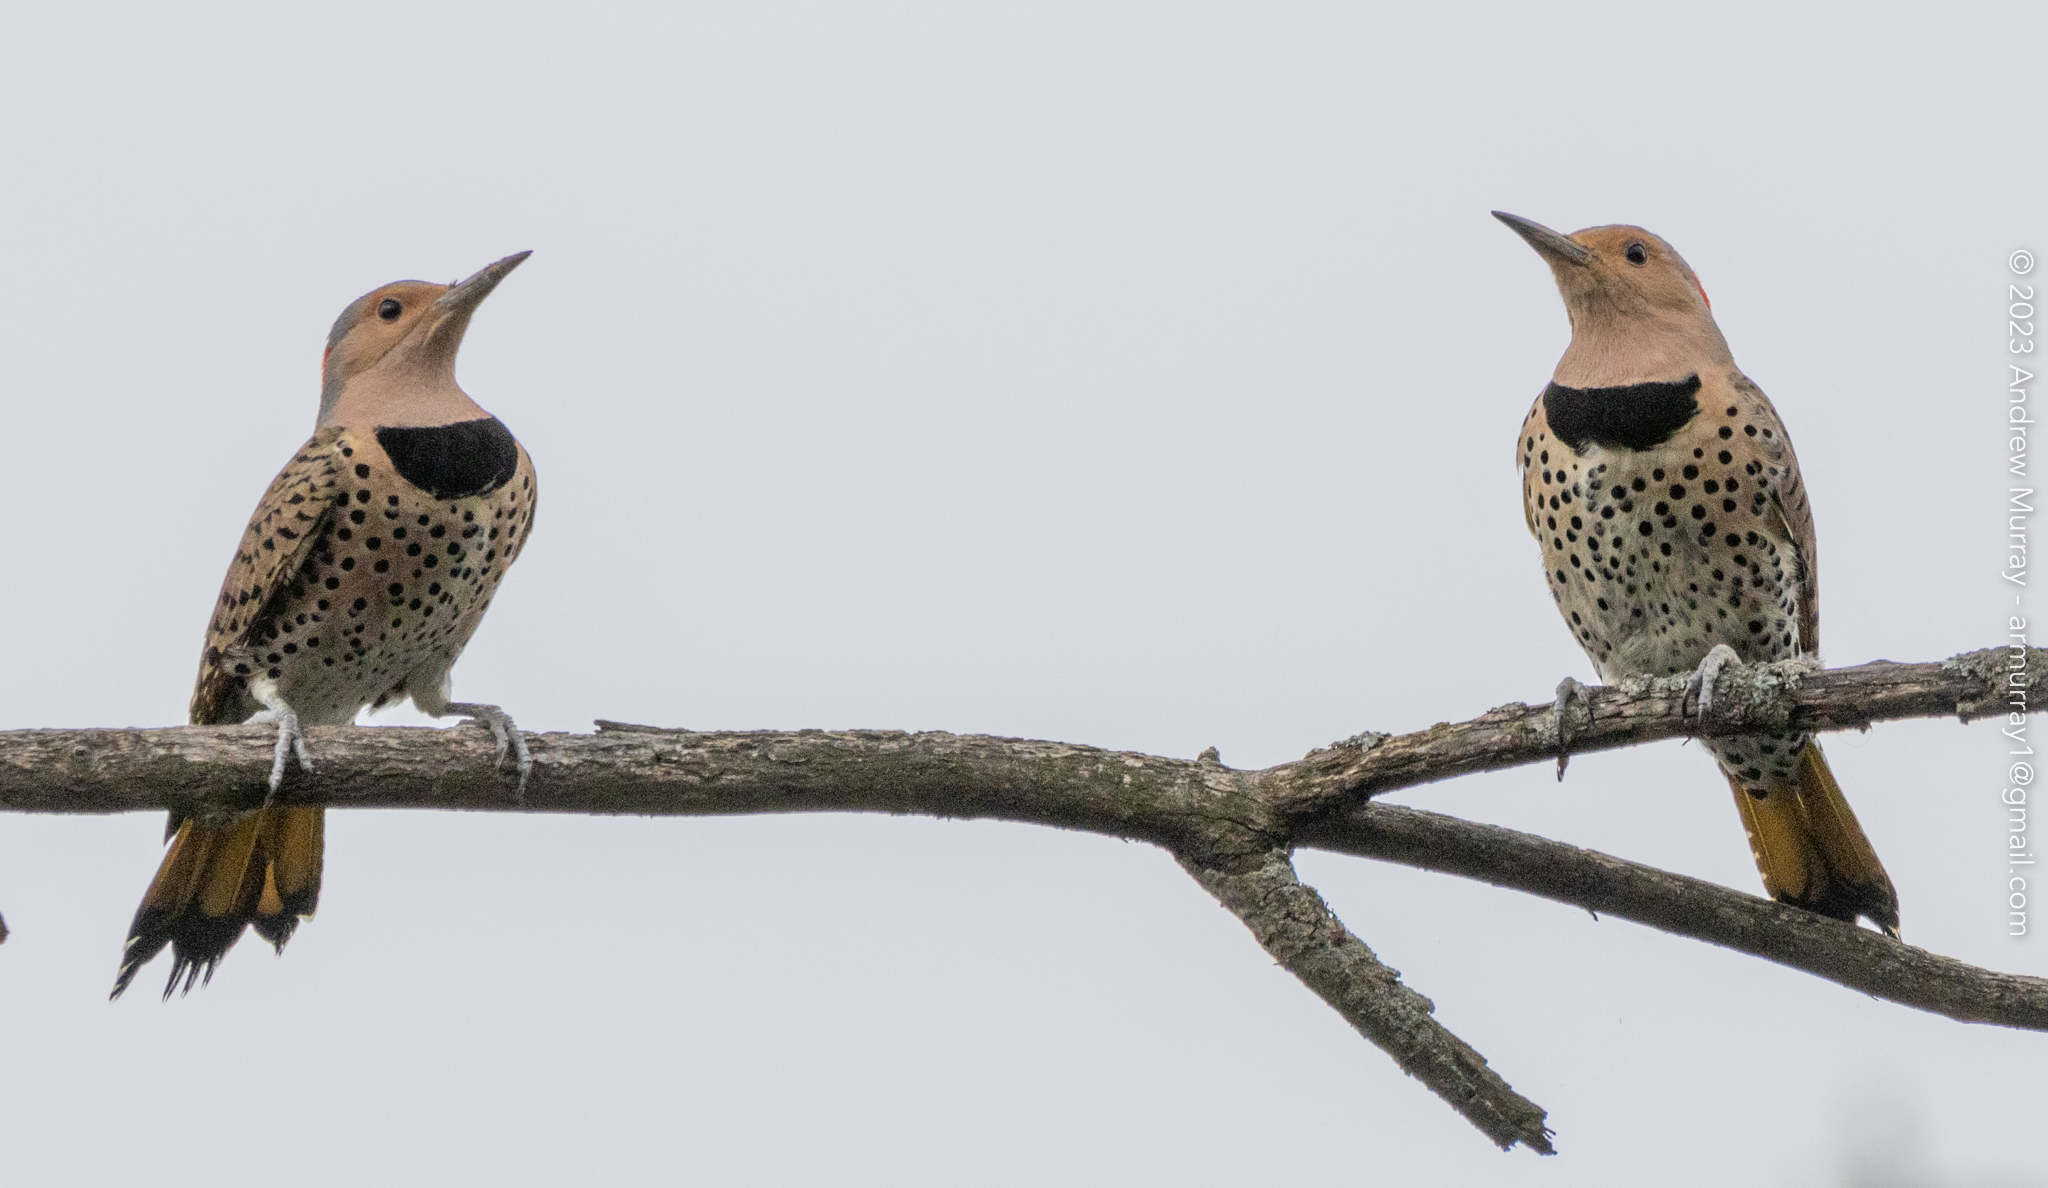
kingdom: Animalia
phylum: Chordata
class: Aves
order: Piciformes
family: Picidae
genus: Colaptes
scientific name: Colaptes auratus
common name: Northern flicker
